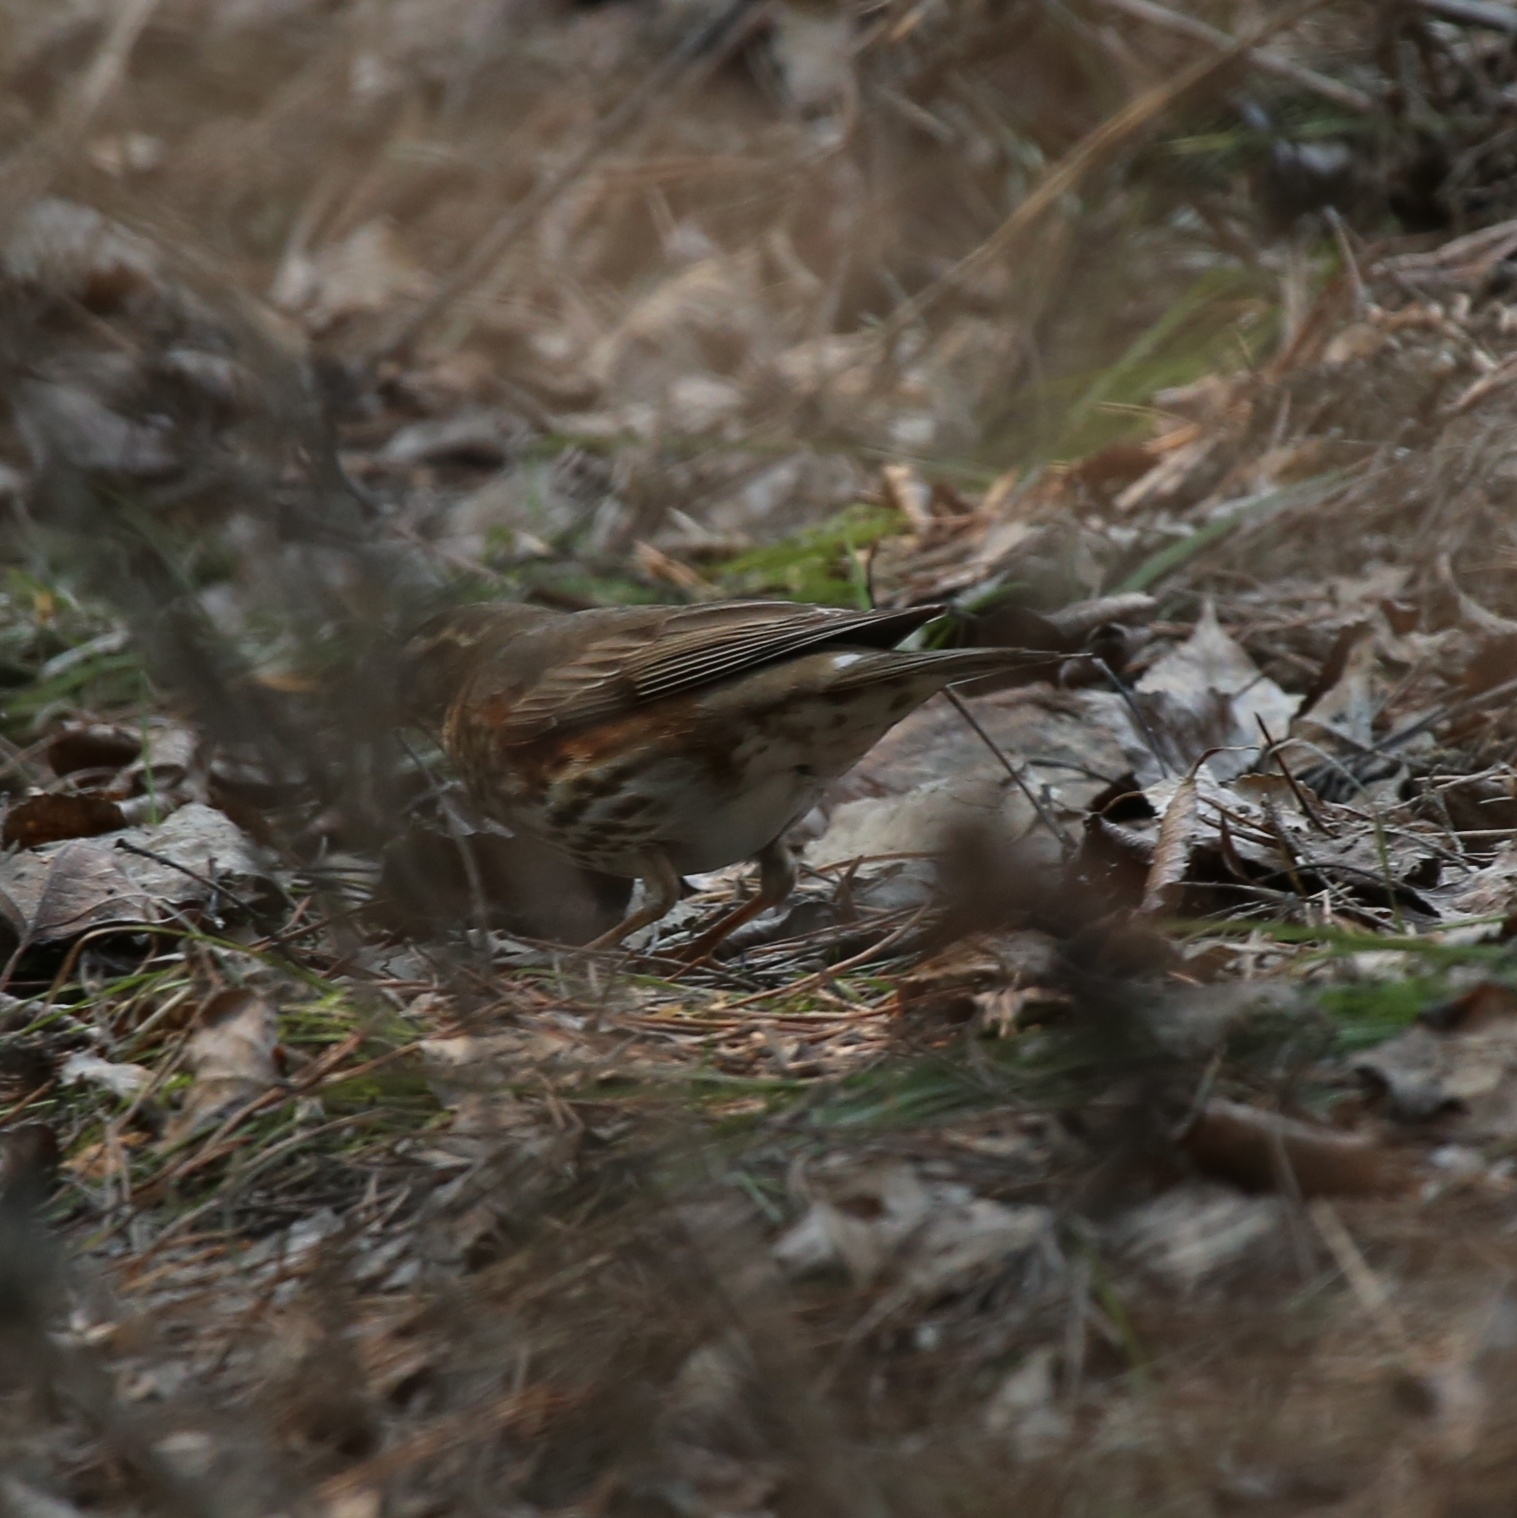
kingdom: Animalia
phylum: Chordata
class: Aves
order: Passeriformes
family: Turdidae
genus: Turdus
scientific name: Turdus iliacus
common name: Redwing
